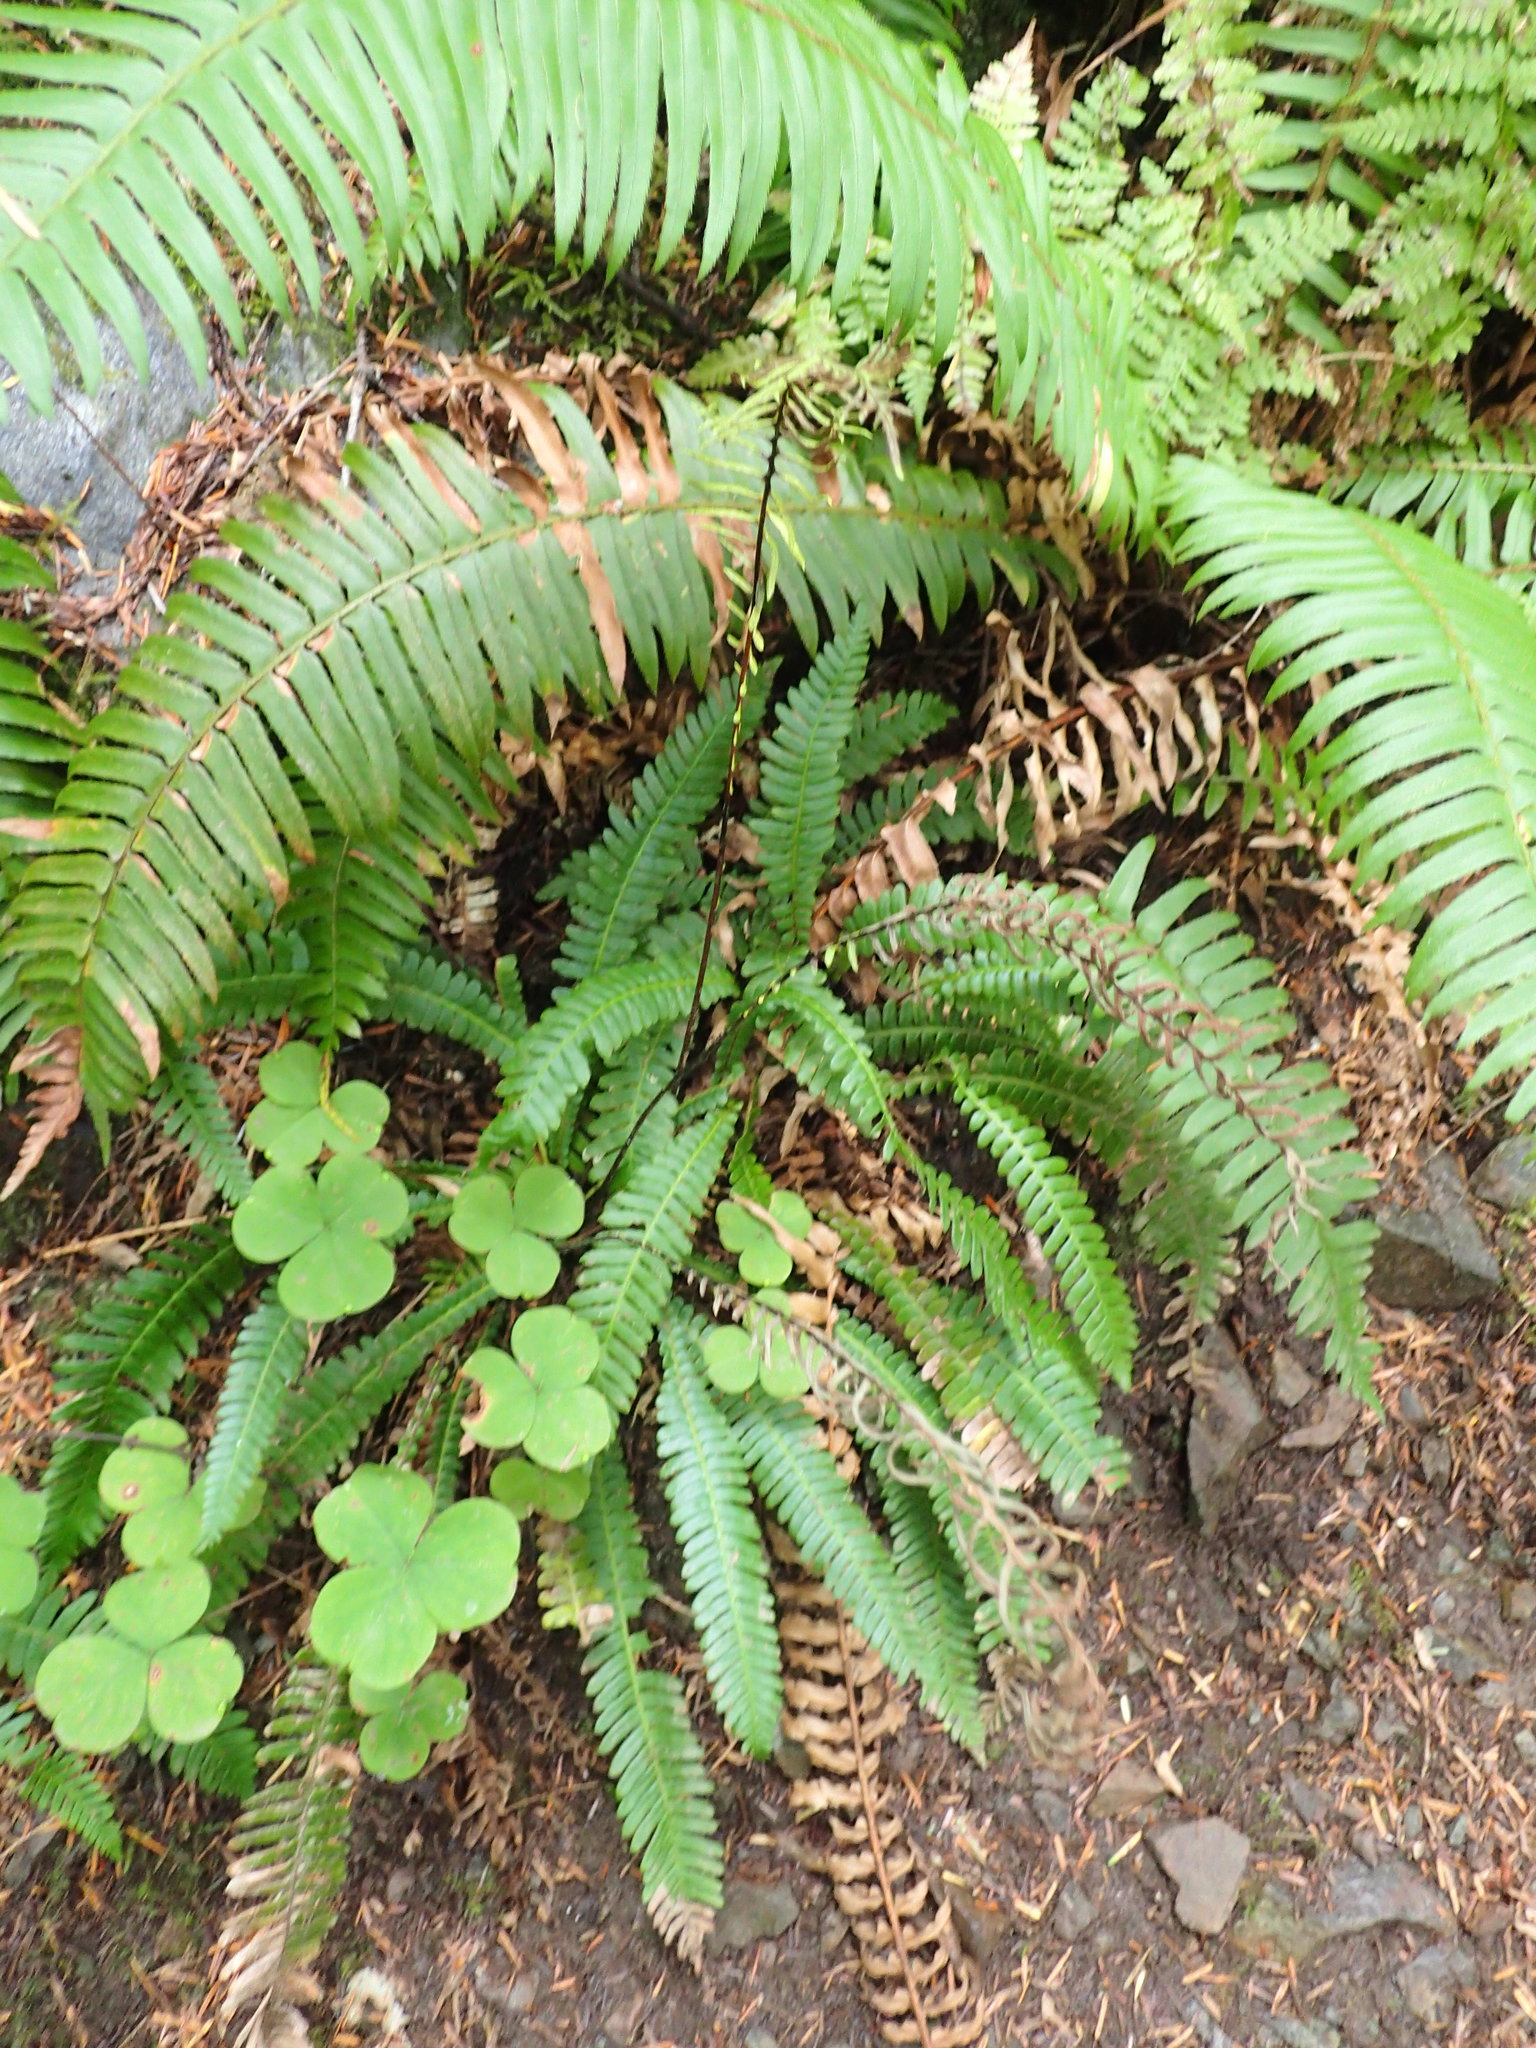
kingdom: Plantae
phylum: Tracheophyta
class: Polypodiopsida
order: Polypodiales
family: Blechnaceae
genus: Struthiopteris
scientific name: Struthiopteris spicant
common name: Deer fern
